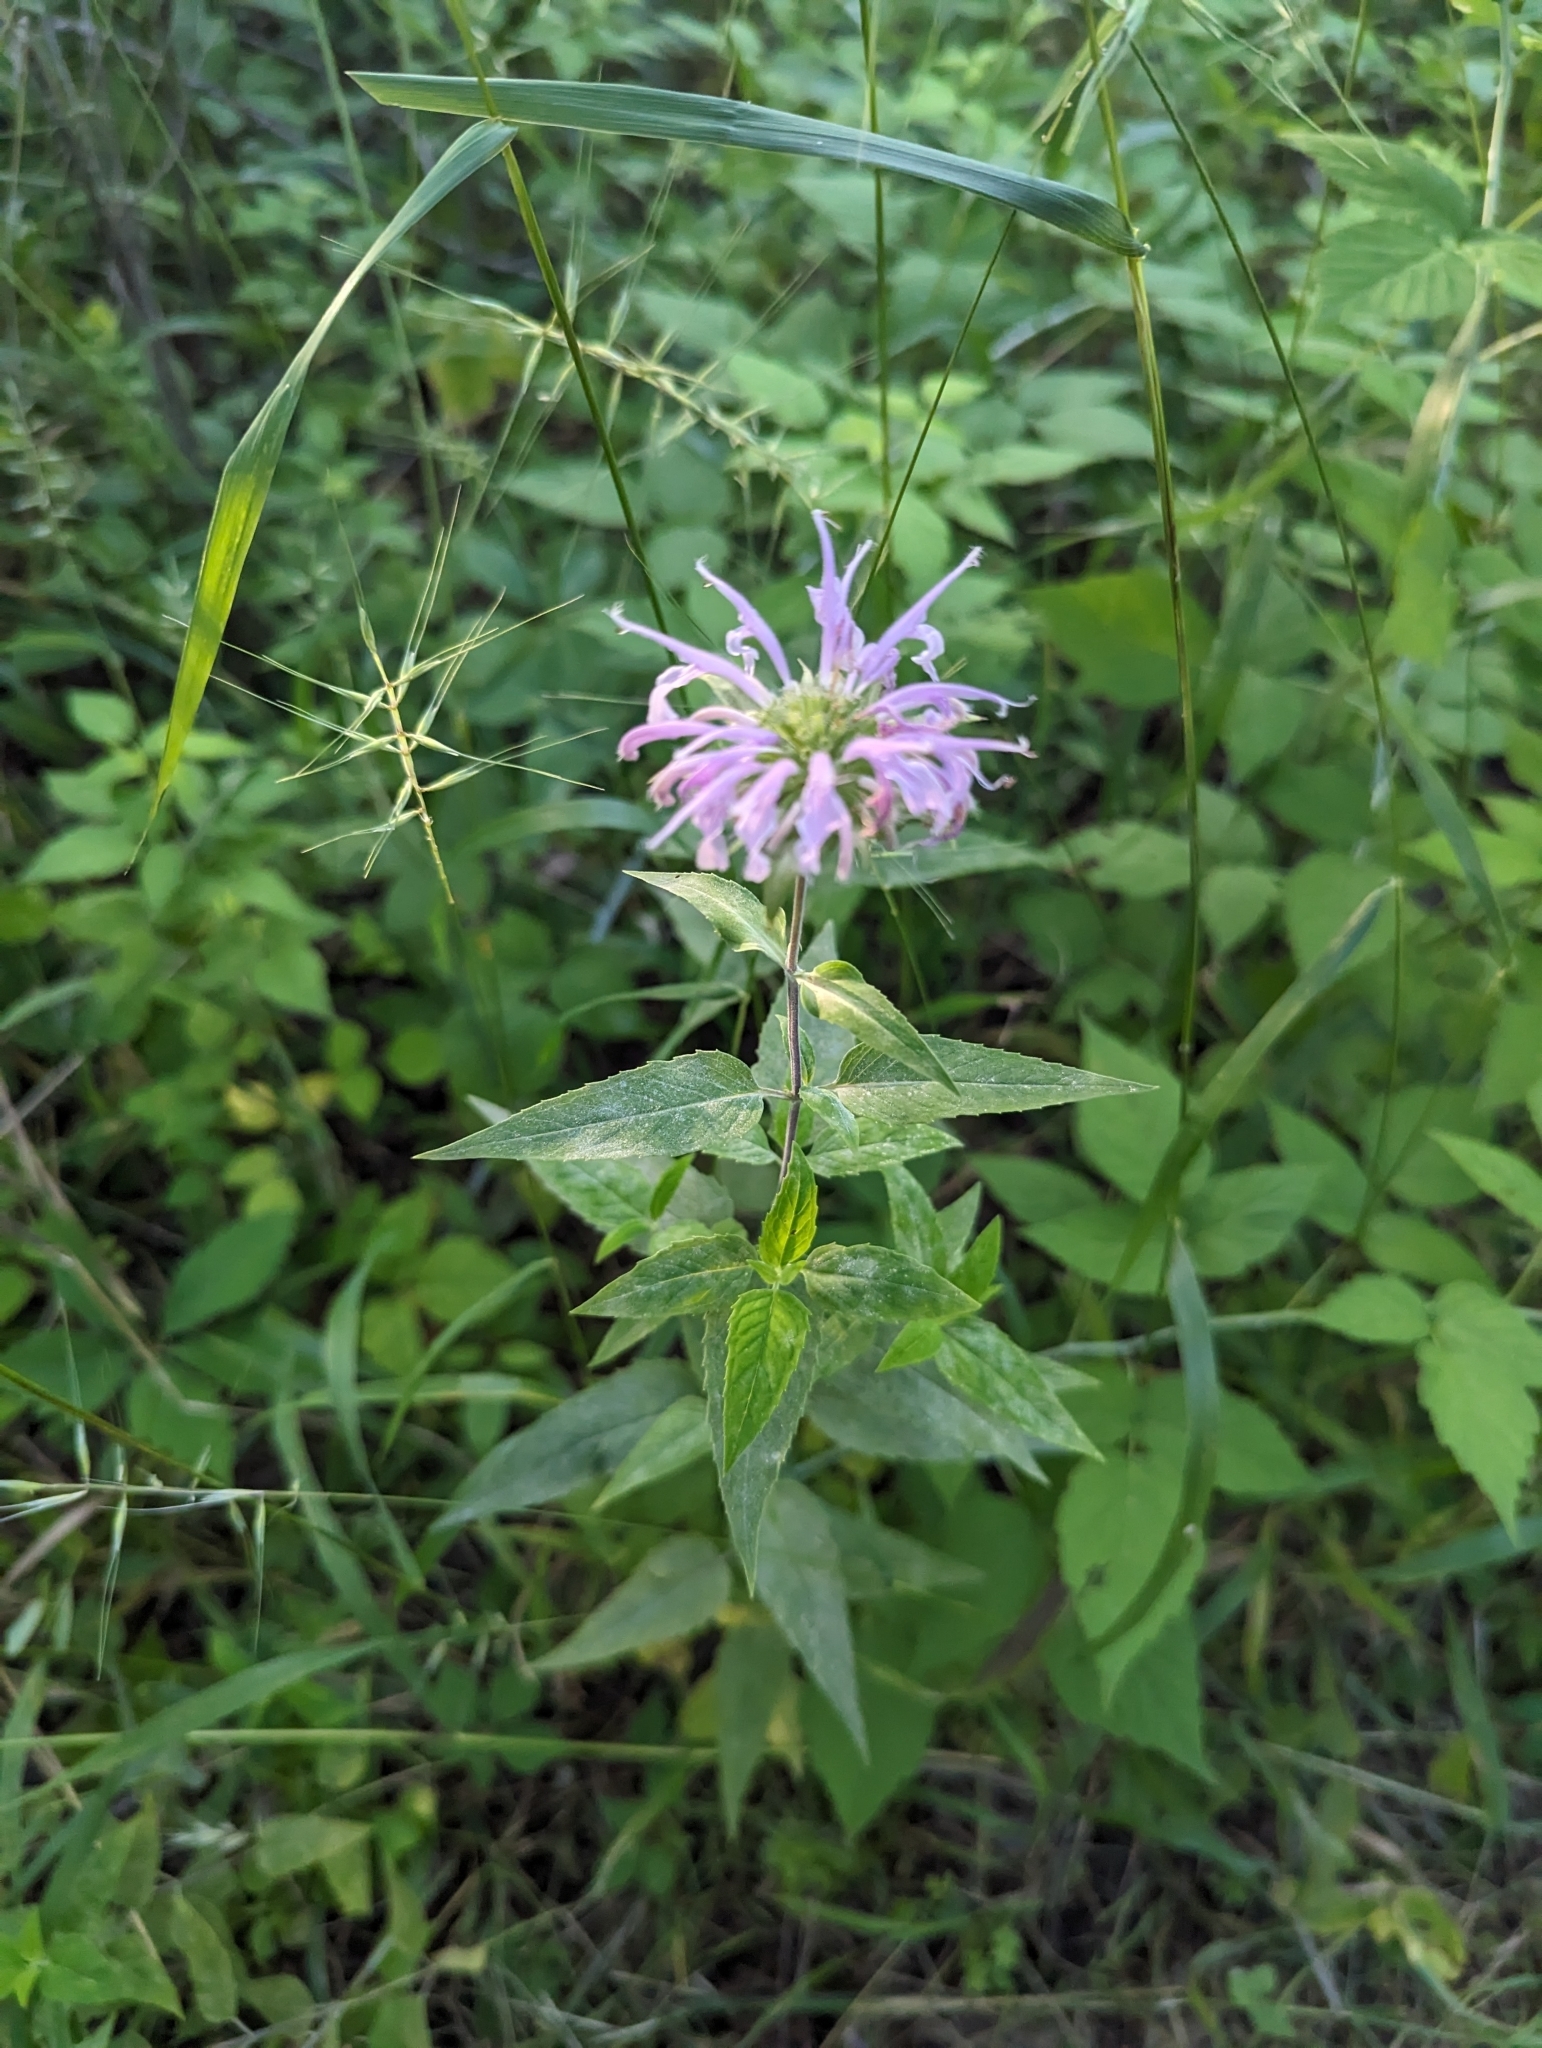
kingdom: Plantae
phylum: Tracheophyta
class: Magnoliopsida
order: Lamiales
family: Lamiaceae
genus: Monarda
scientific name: Monarda fistulosa
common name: Purple beebalm
